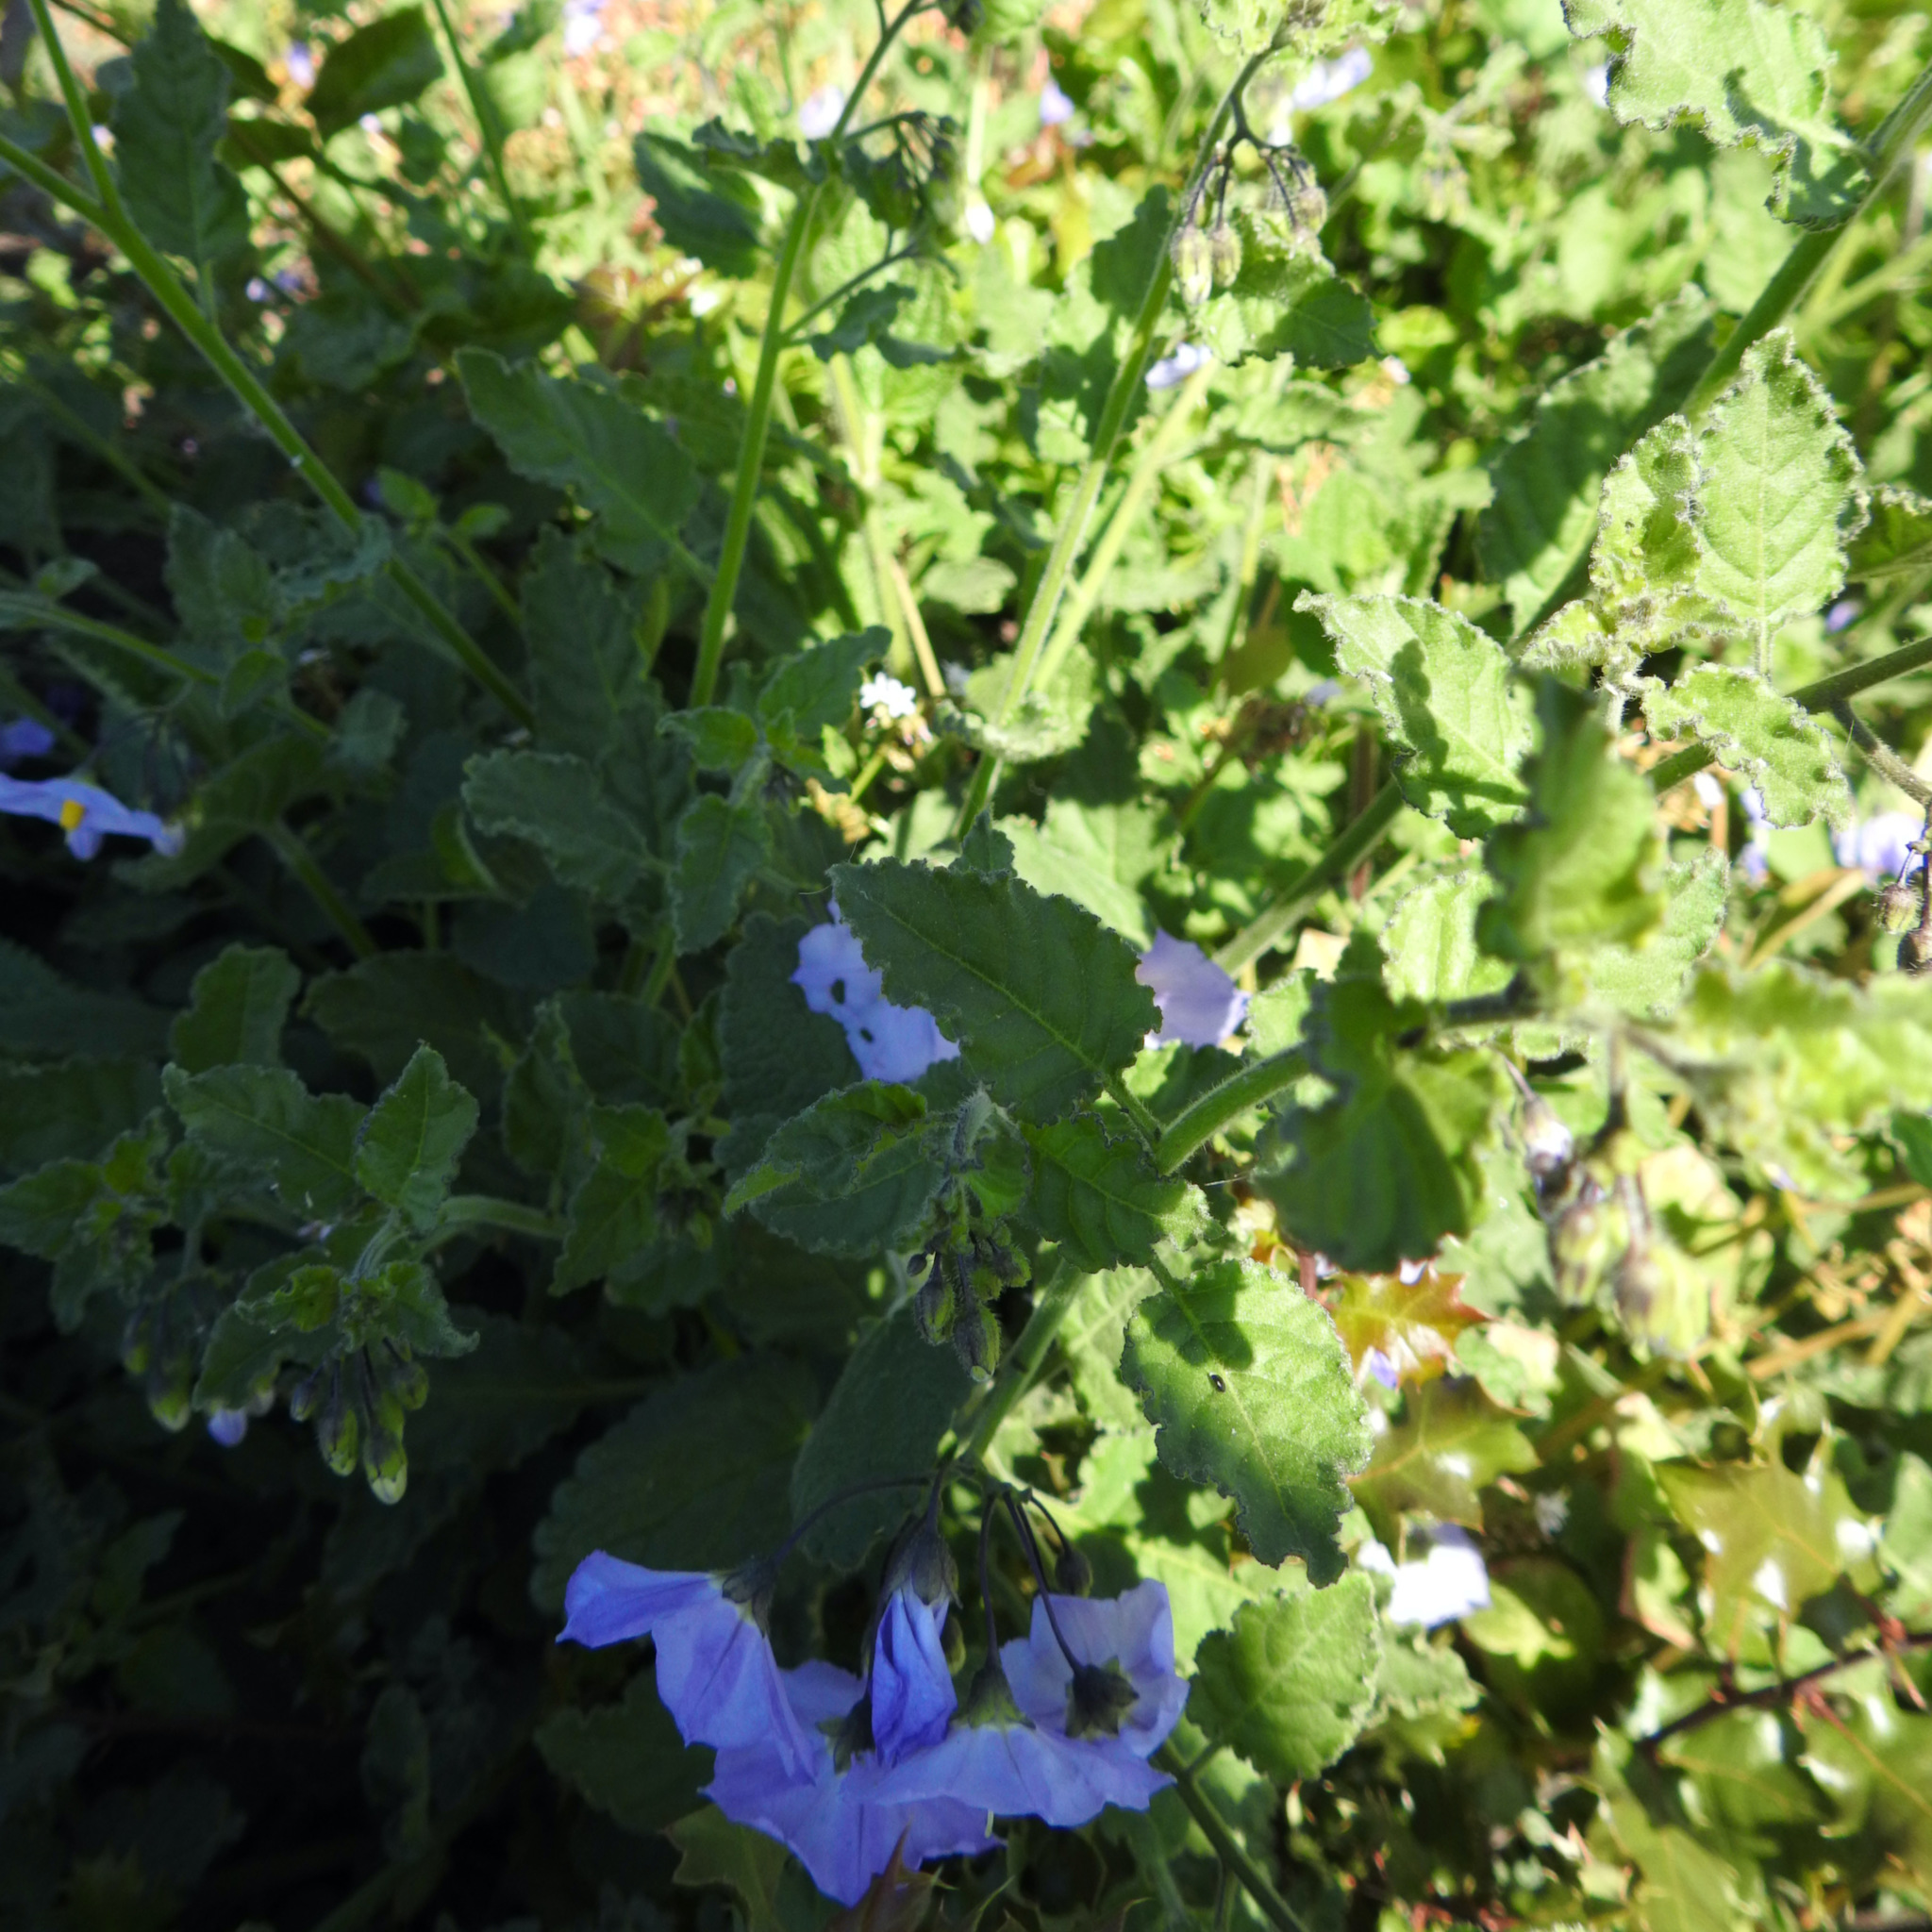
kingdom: Plantae
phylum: Tracheophyta
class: Magnoliopsida
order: Solanales
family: Solanaceae
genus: Solanum
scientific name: Solanum umbelliferum
